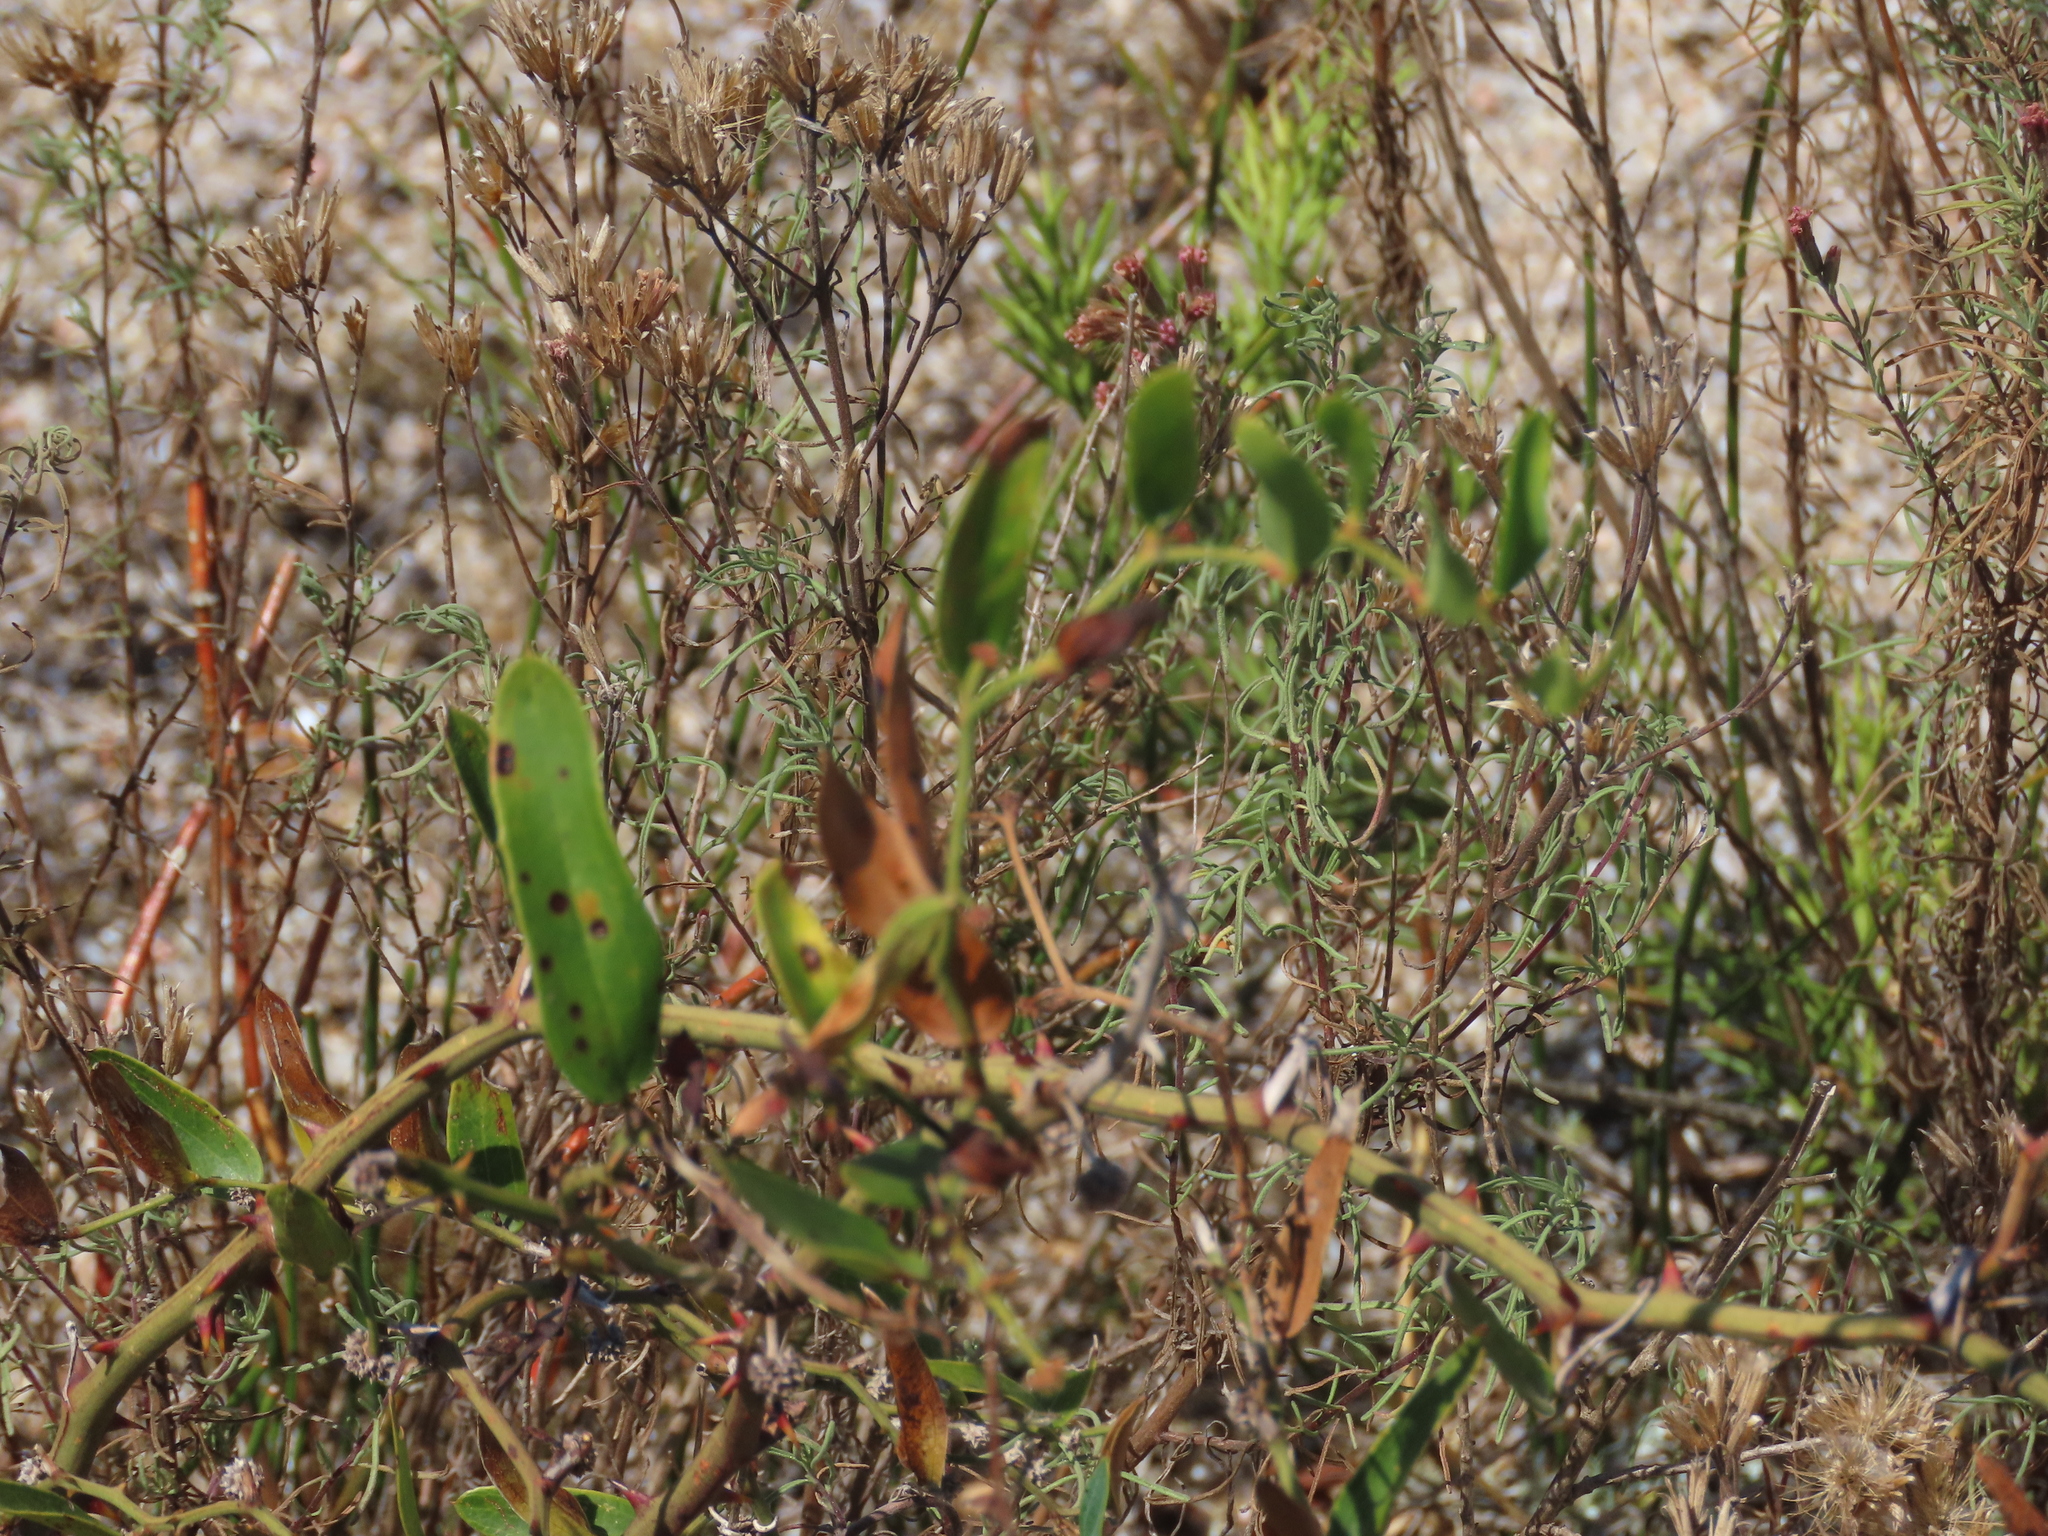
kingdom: Plantae
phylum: Tracheophyta
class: Liliopsida
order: Liliales
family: Smilacaceae
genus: Smilax
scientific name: Smilax campestris
